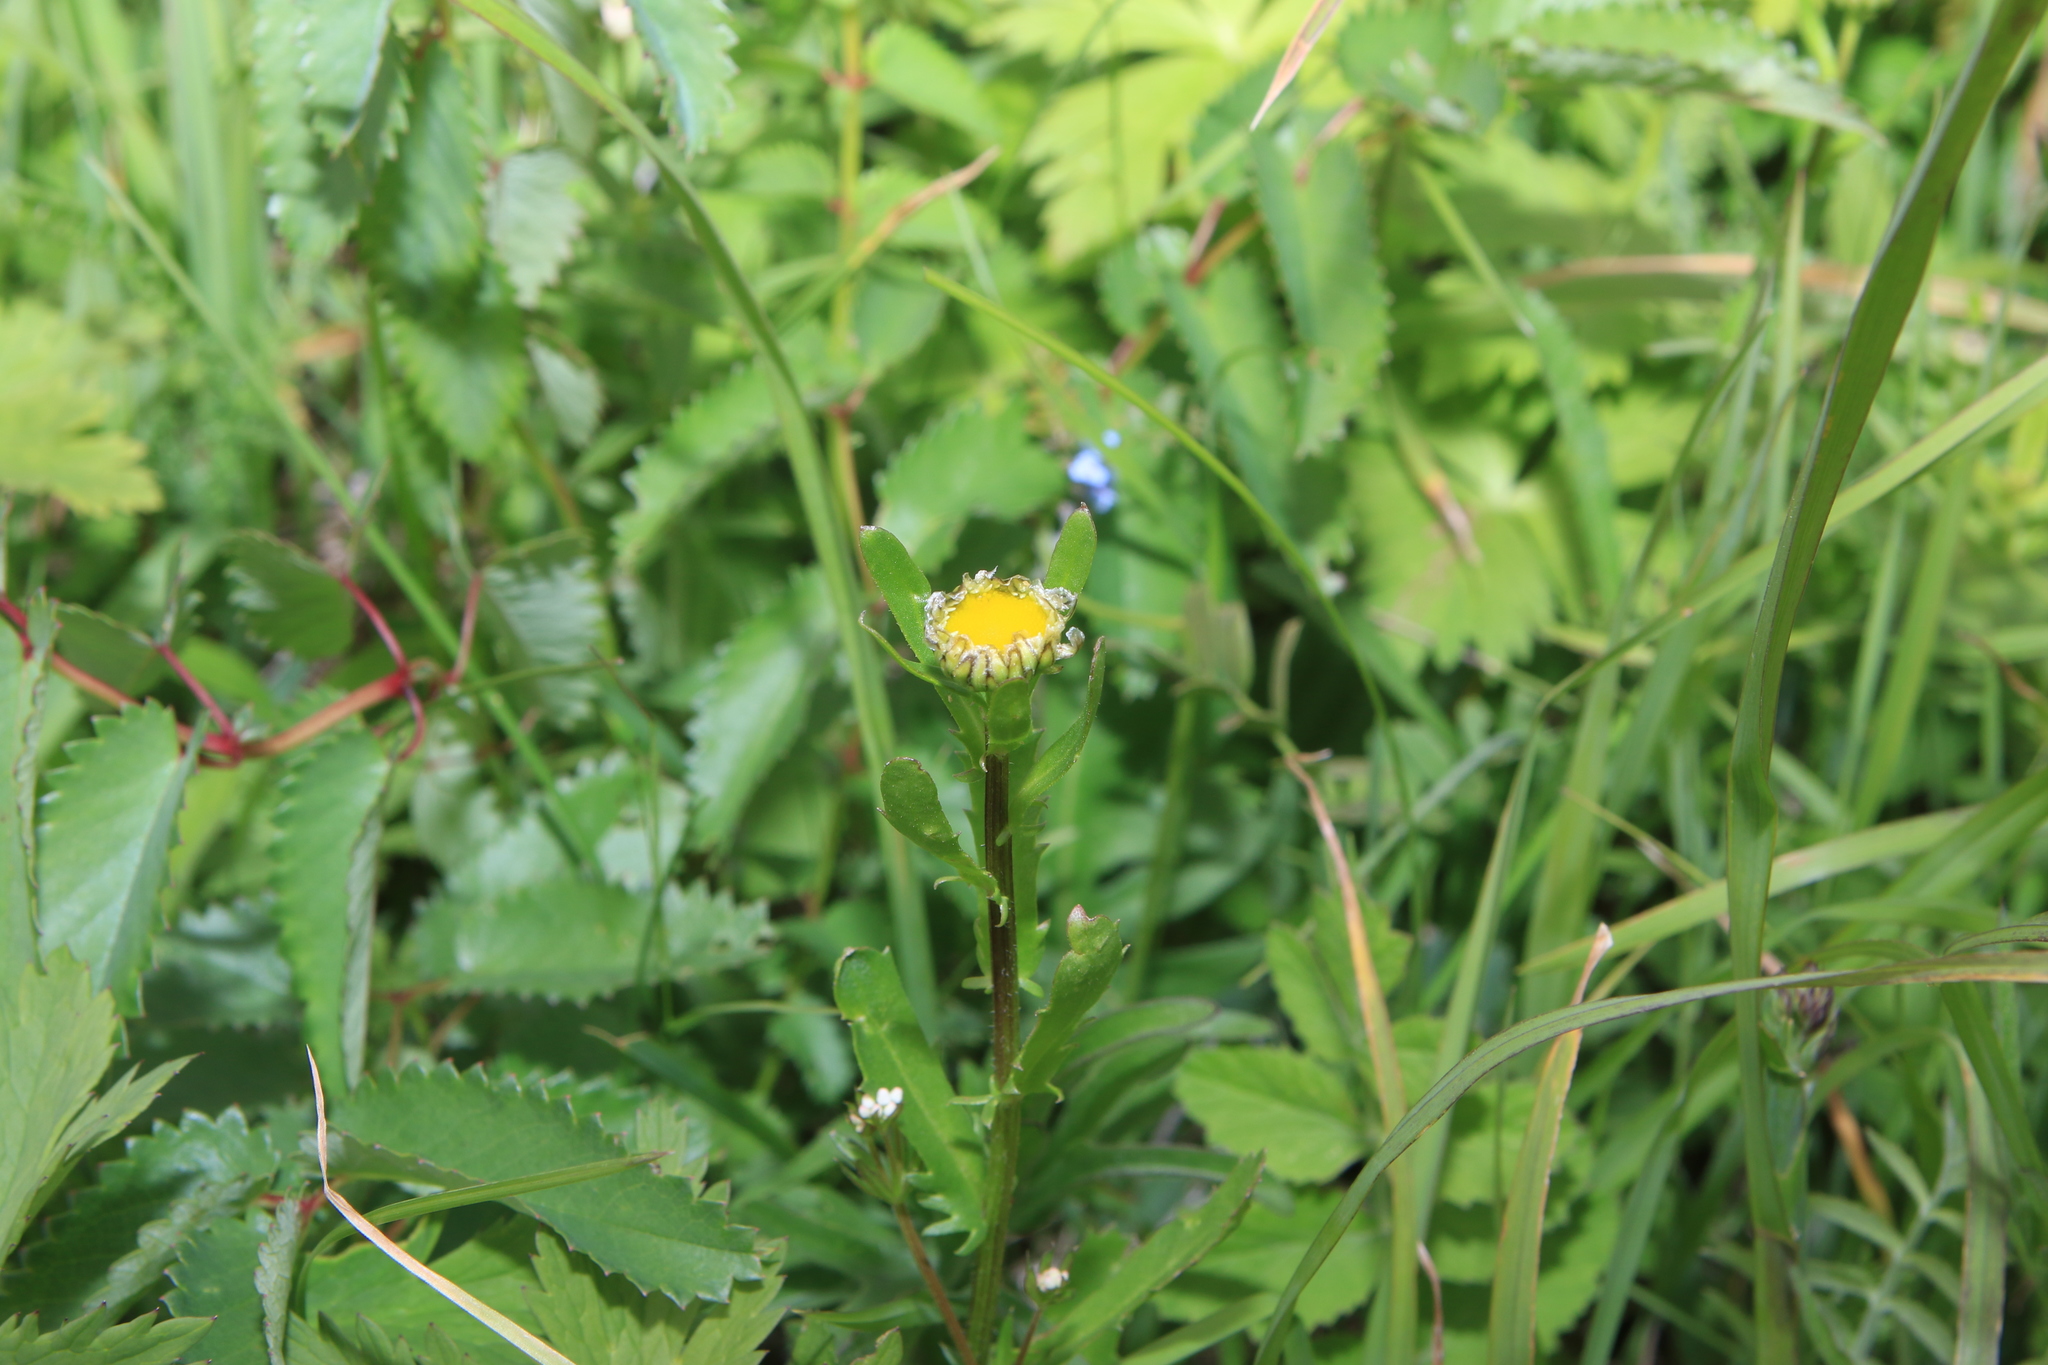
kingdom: Plantae
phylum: Tracheophyta
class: Magnoliopsida
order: Asterales
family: Asteraceae
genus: Leucanthemum
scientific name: Leucanthemum vulgare
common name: Oxeye daisy
